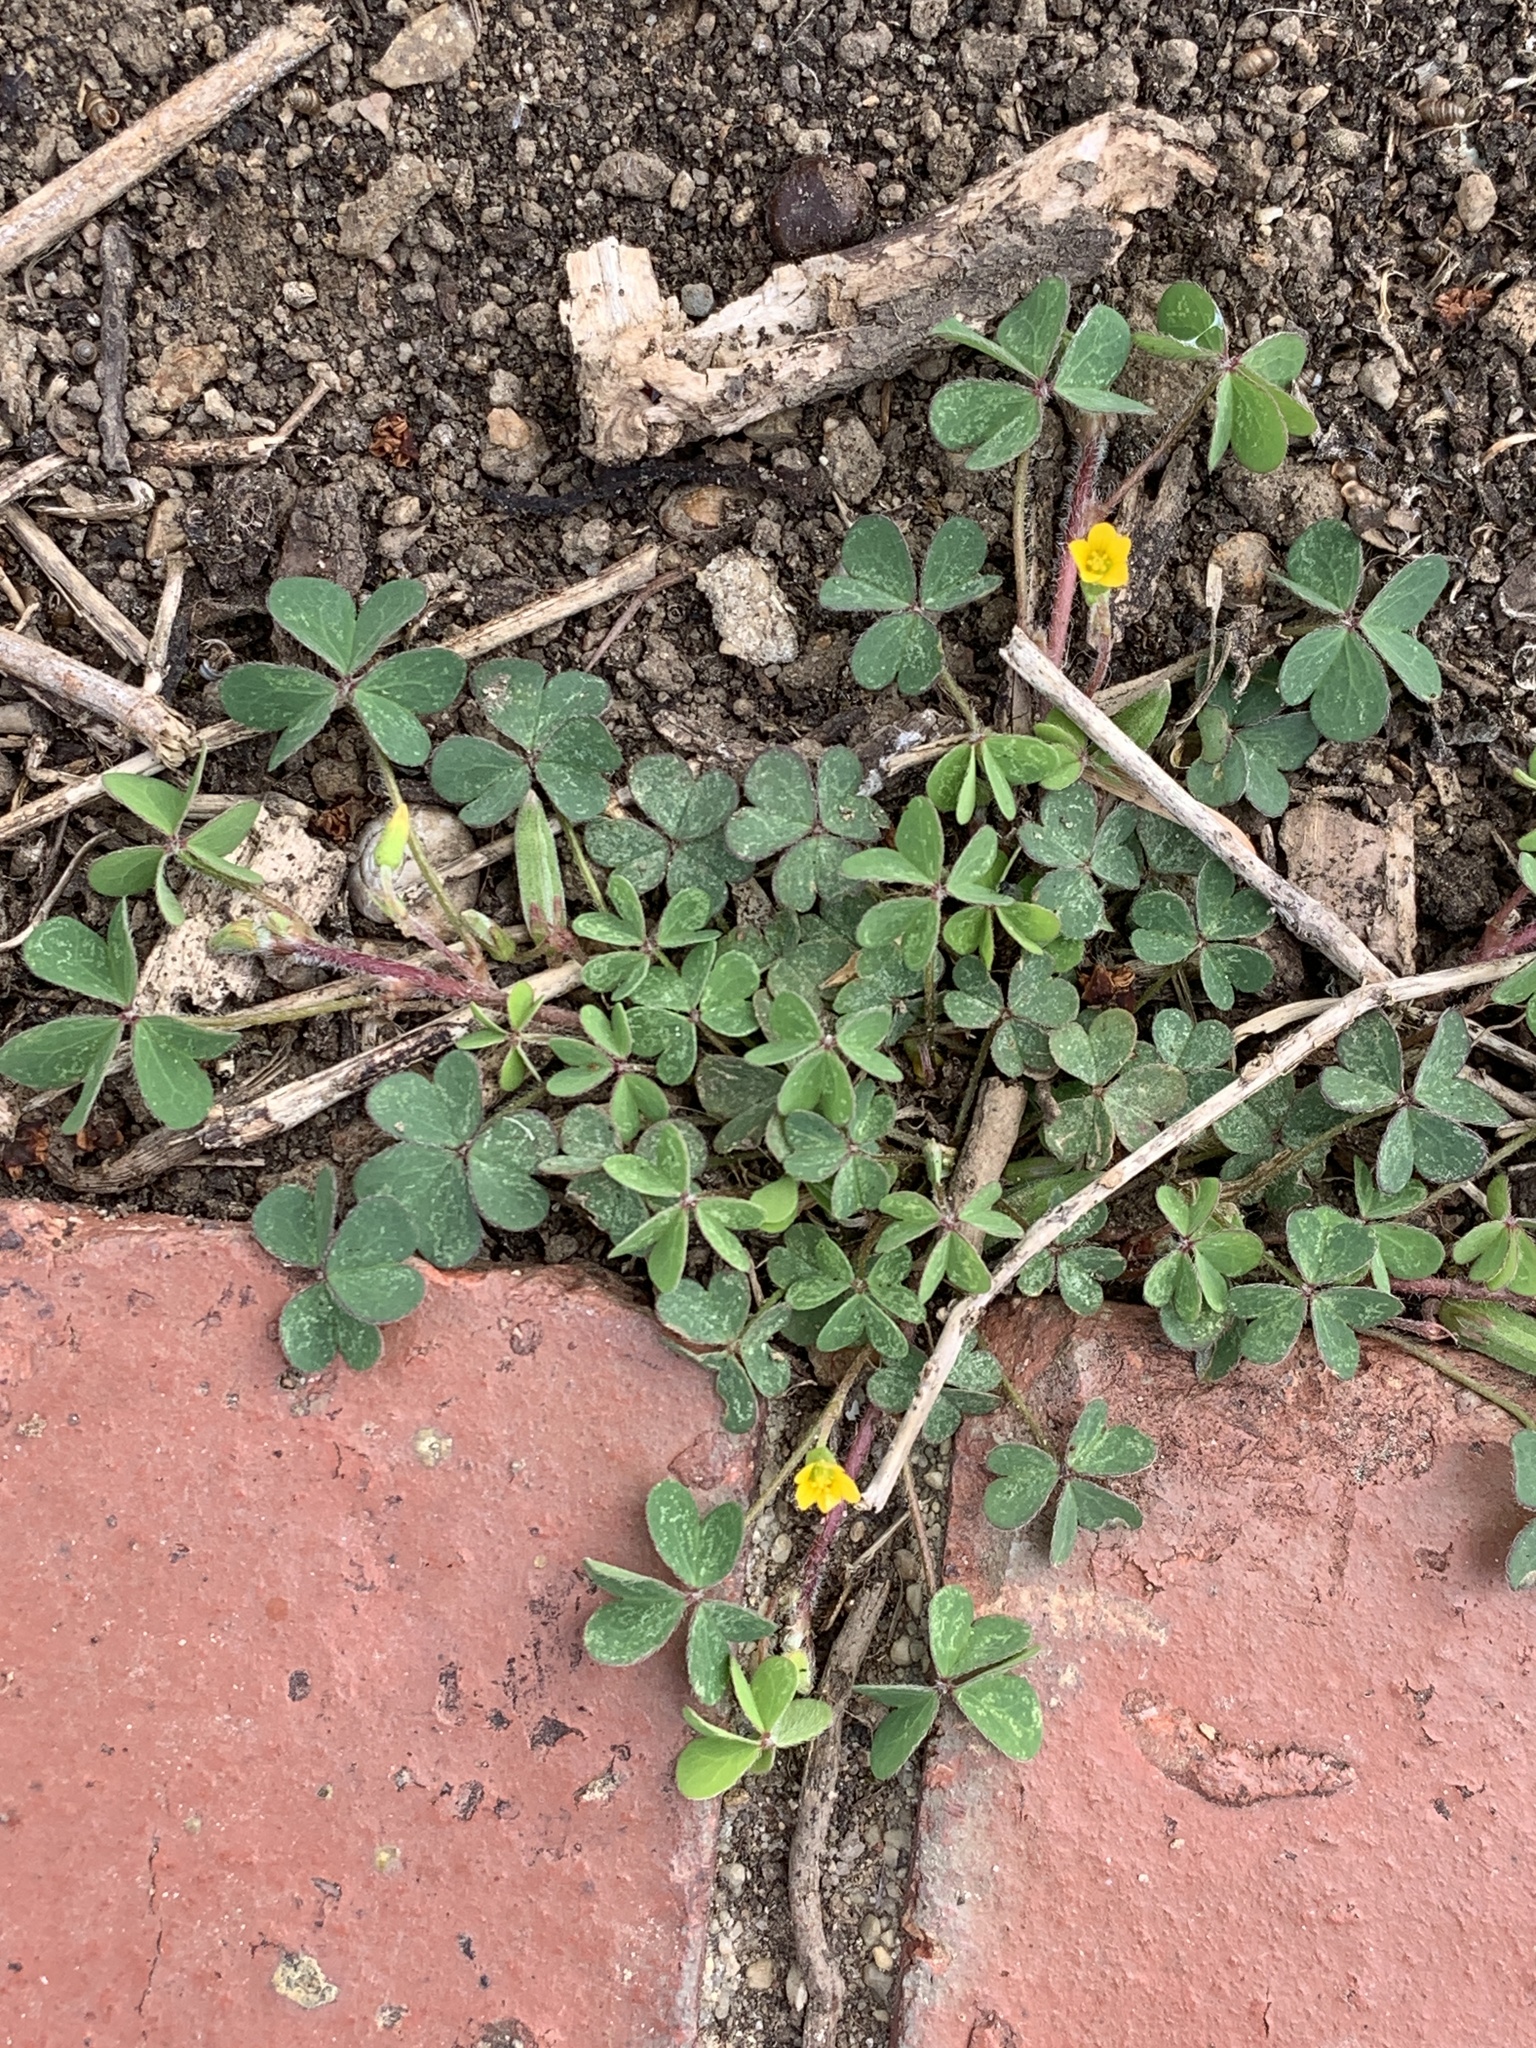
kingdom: Plantae
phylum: Tracheophyta
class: Magnoliopsida
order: Oxalidales
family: Oxalidaceae
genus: Oxalis
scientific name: Oxalis corniculata
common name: Procumbent yellow-sorrel
